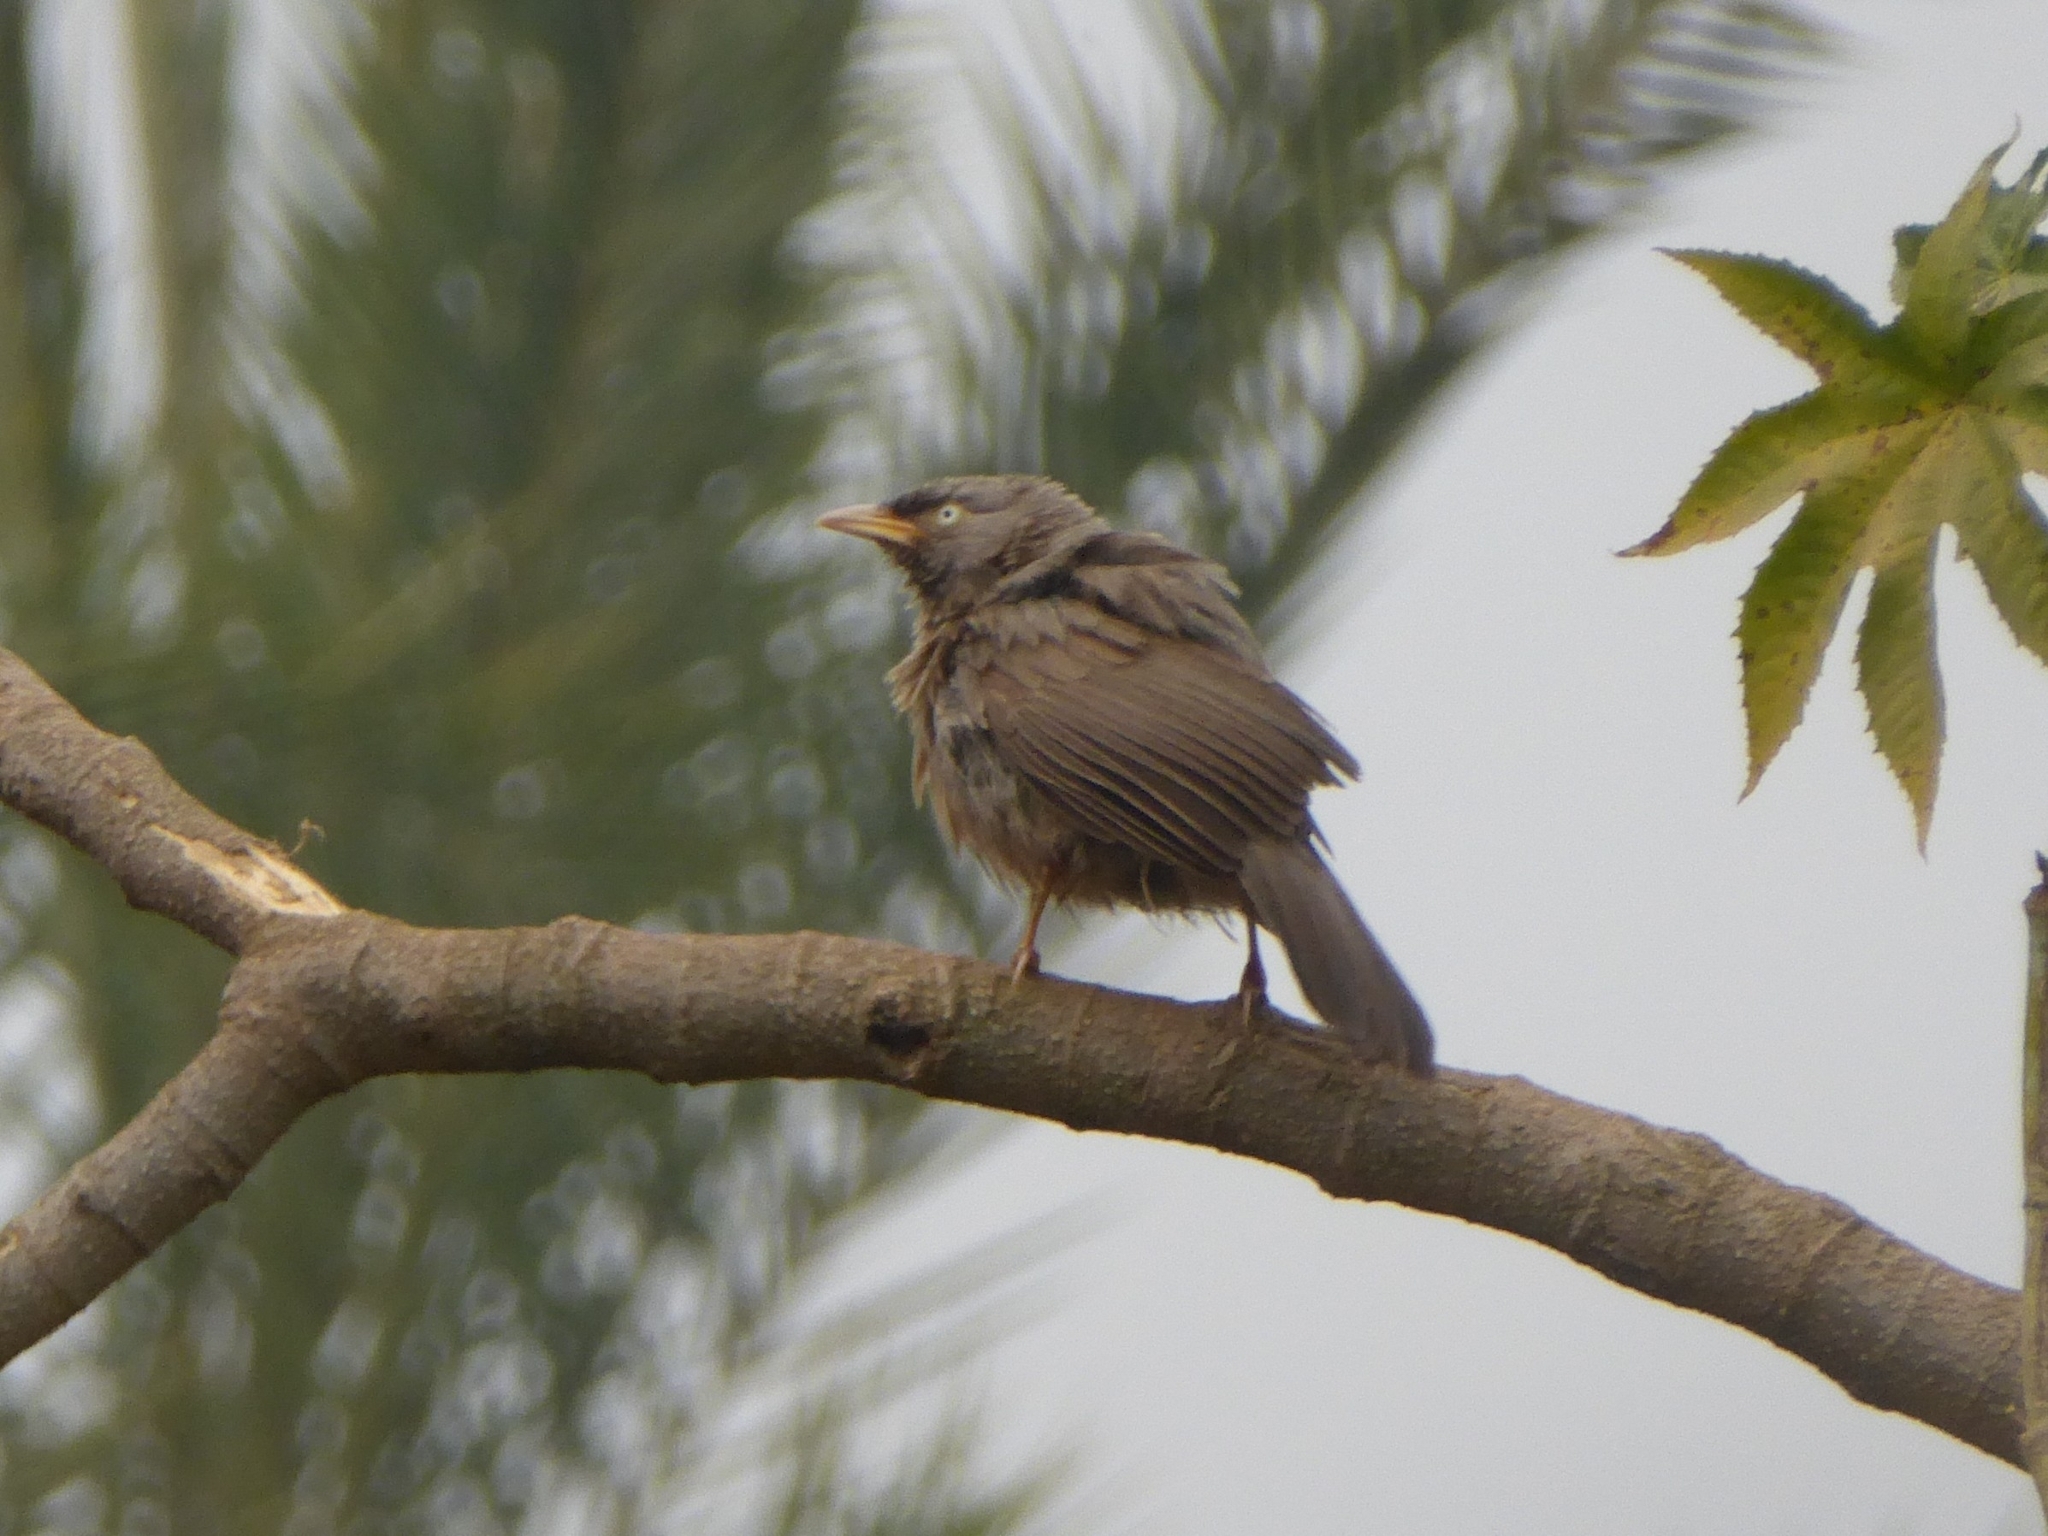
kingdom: Animalia
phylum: Chordata
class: Aves
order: Passeriformes
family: Leiothrichidae
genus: Turdoides
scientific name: Turdoides striata
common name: Jungle babbler
